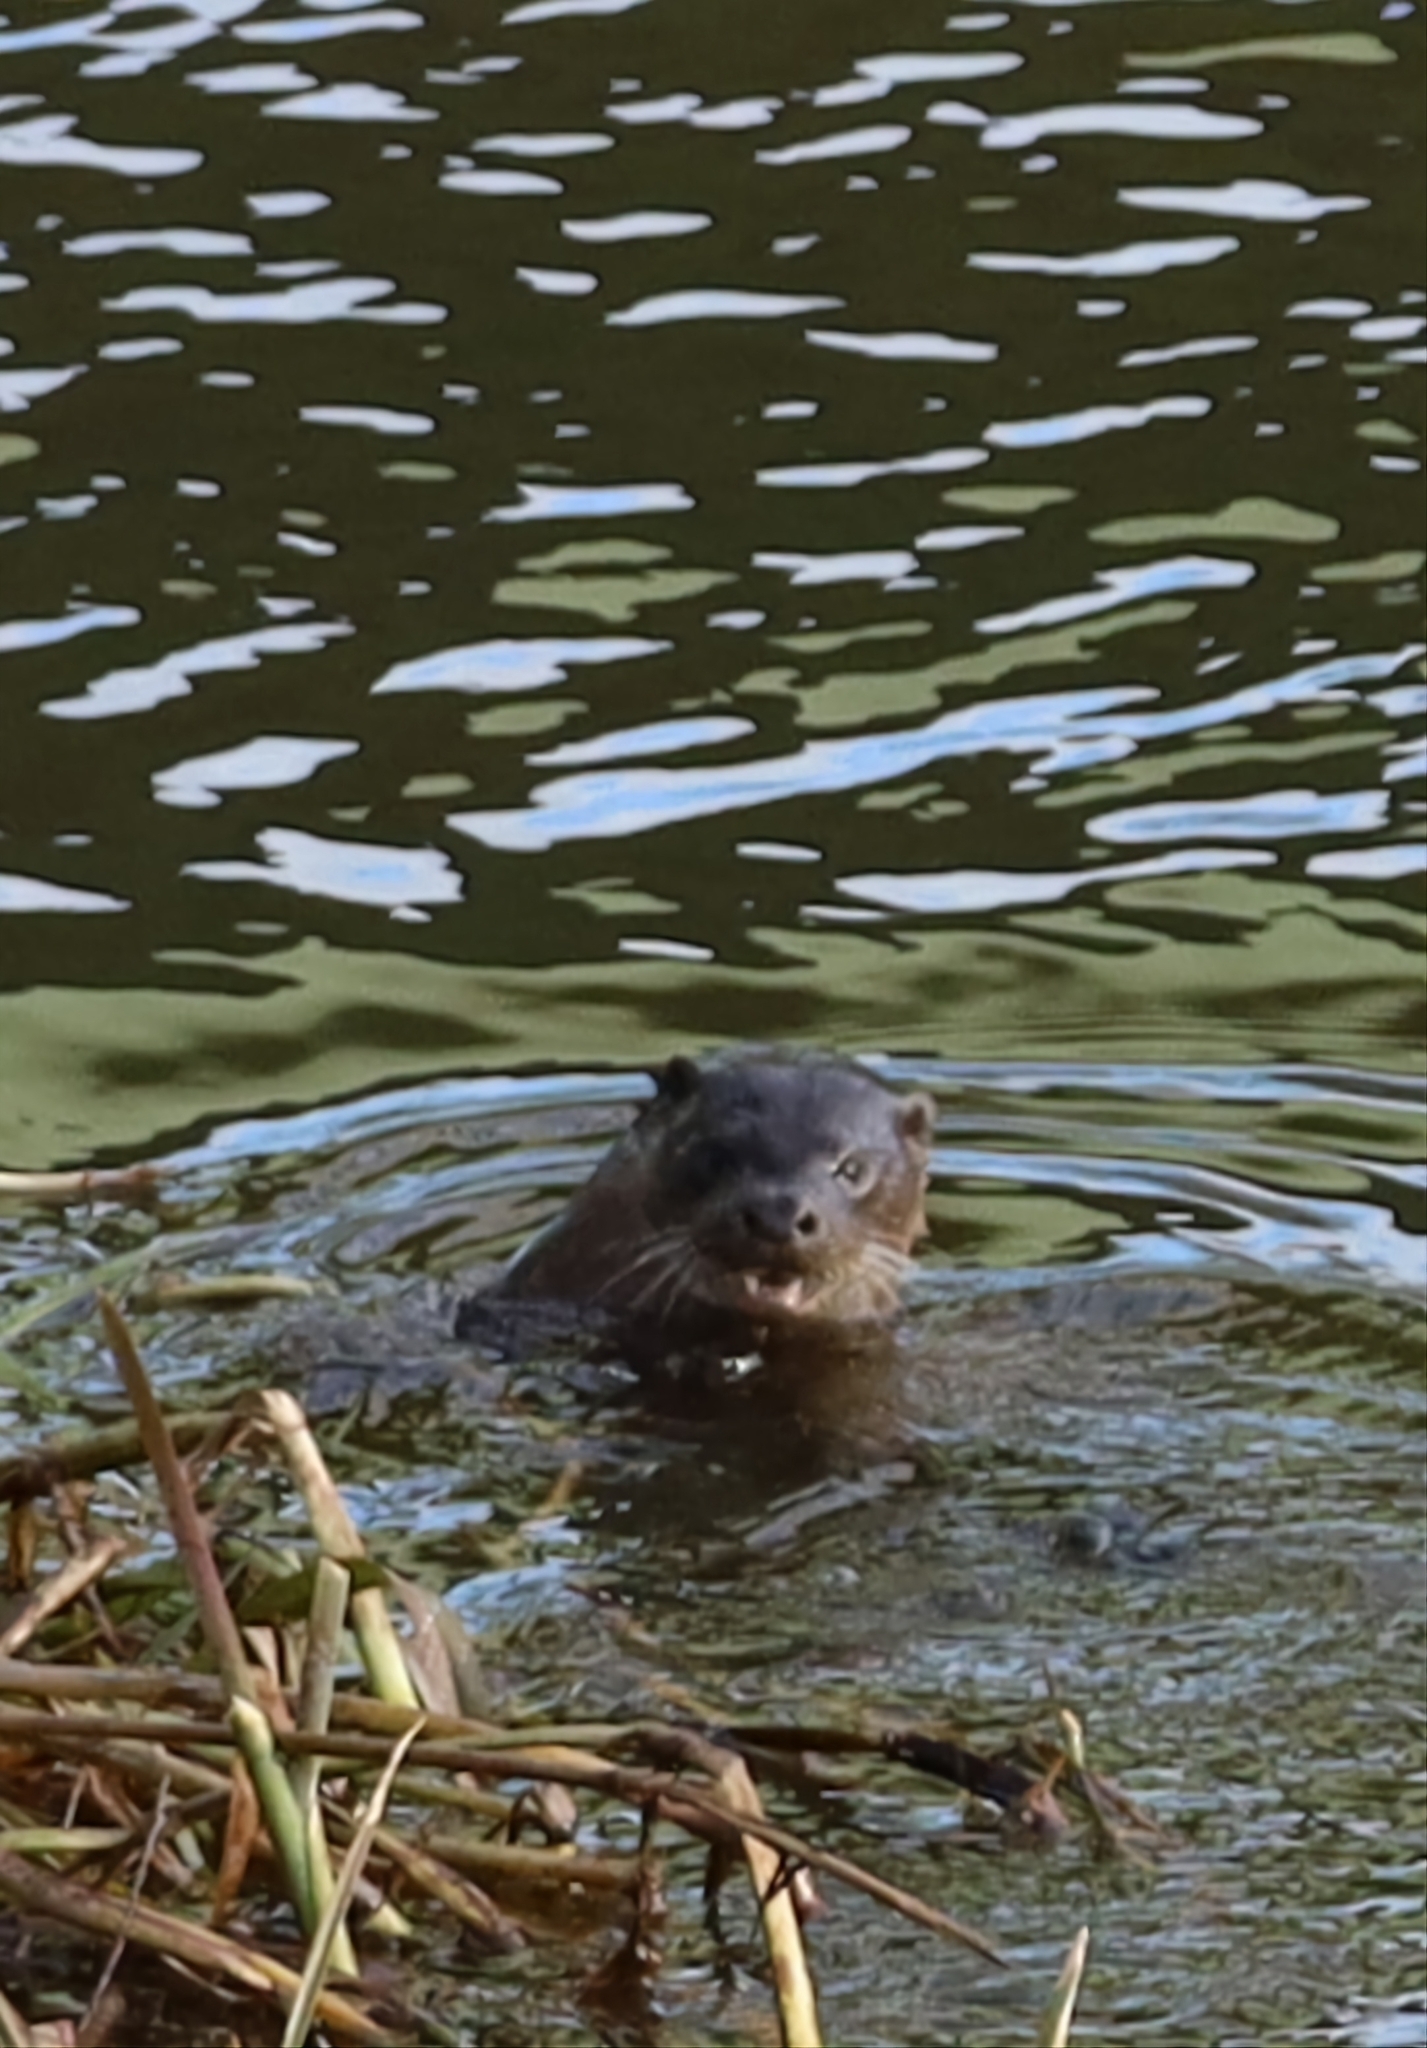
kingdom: Animalia
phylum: Chordata
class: Mammalia
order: Carnivora
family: Mustelidae
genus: Lutra
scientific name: Lutra lutra
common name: European otter
